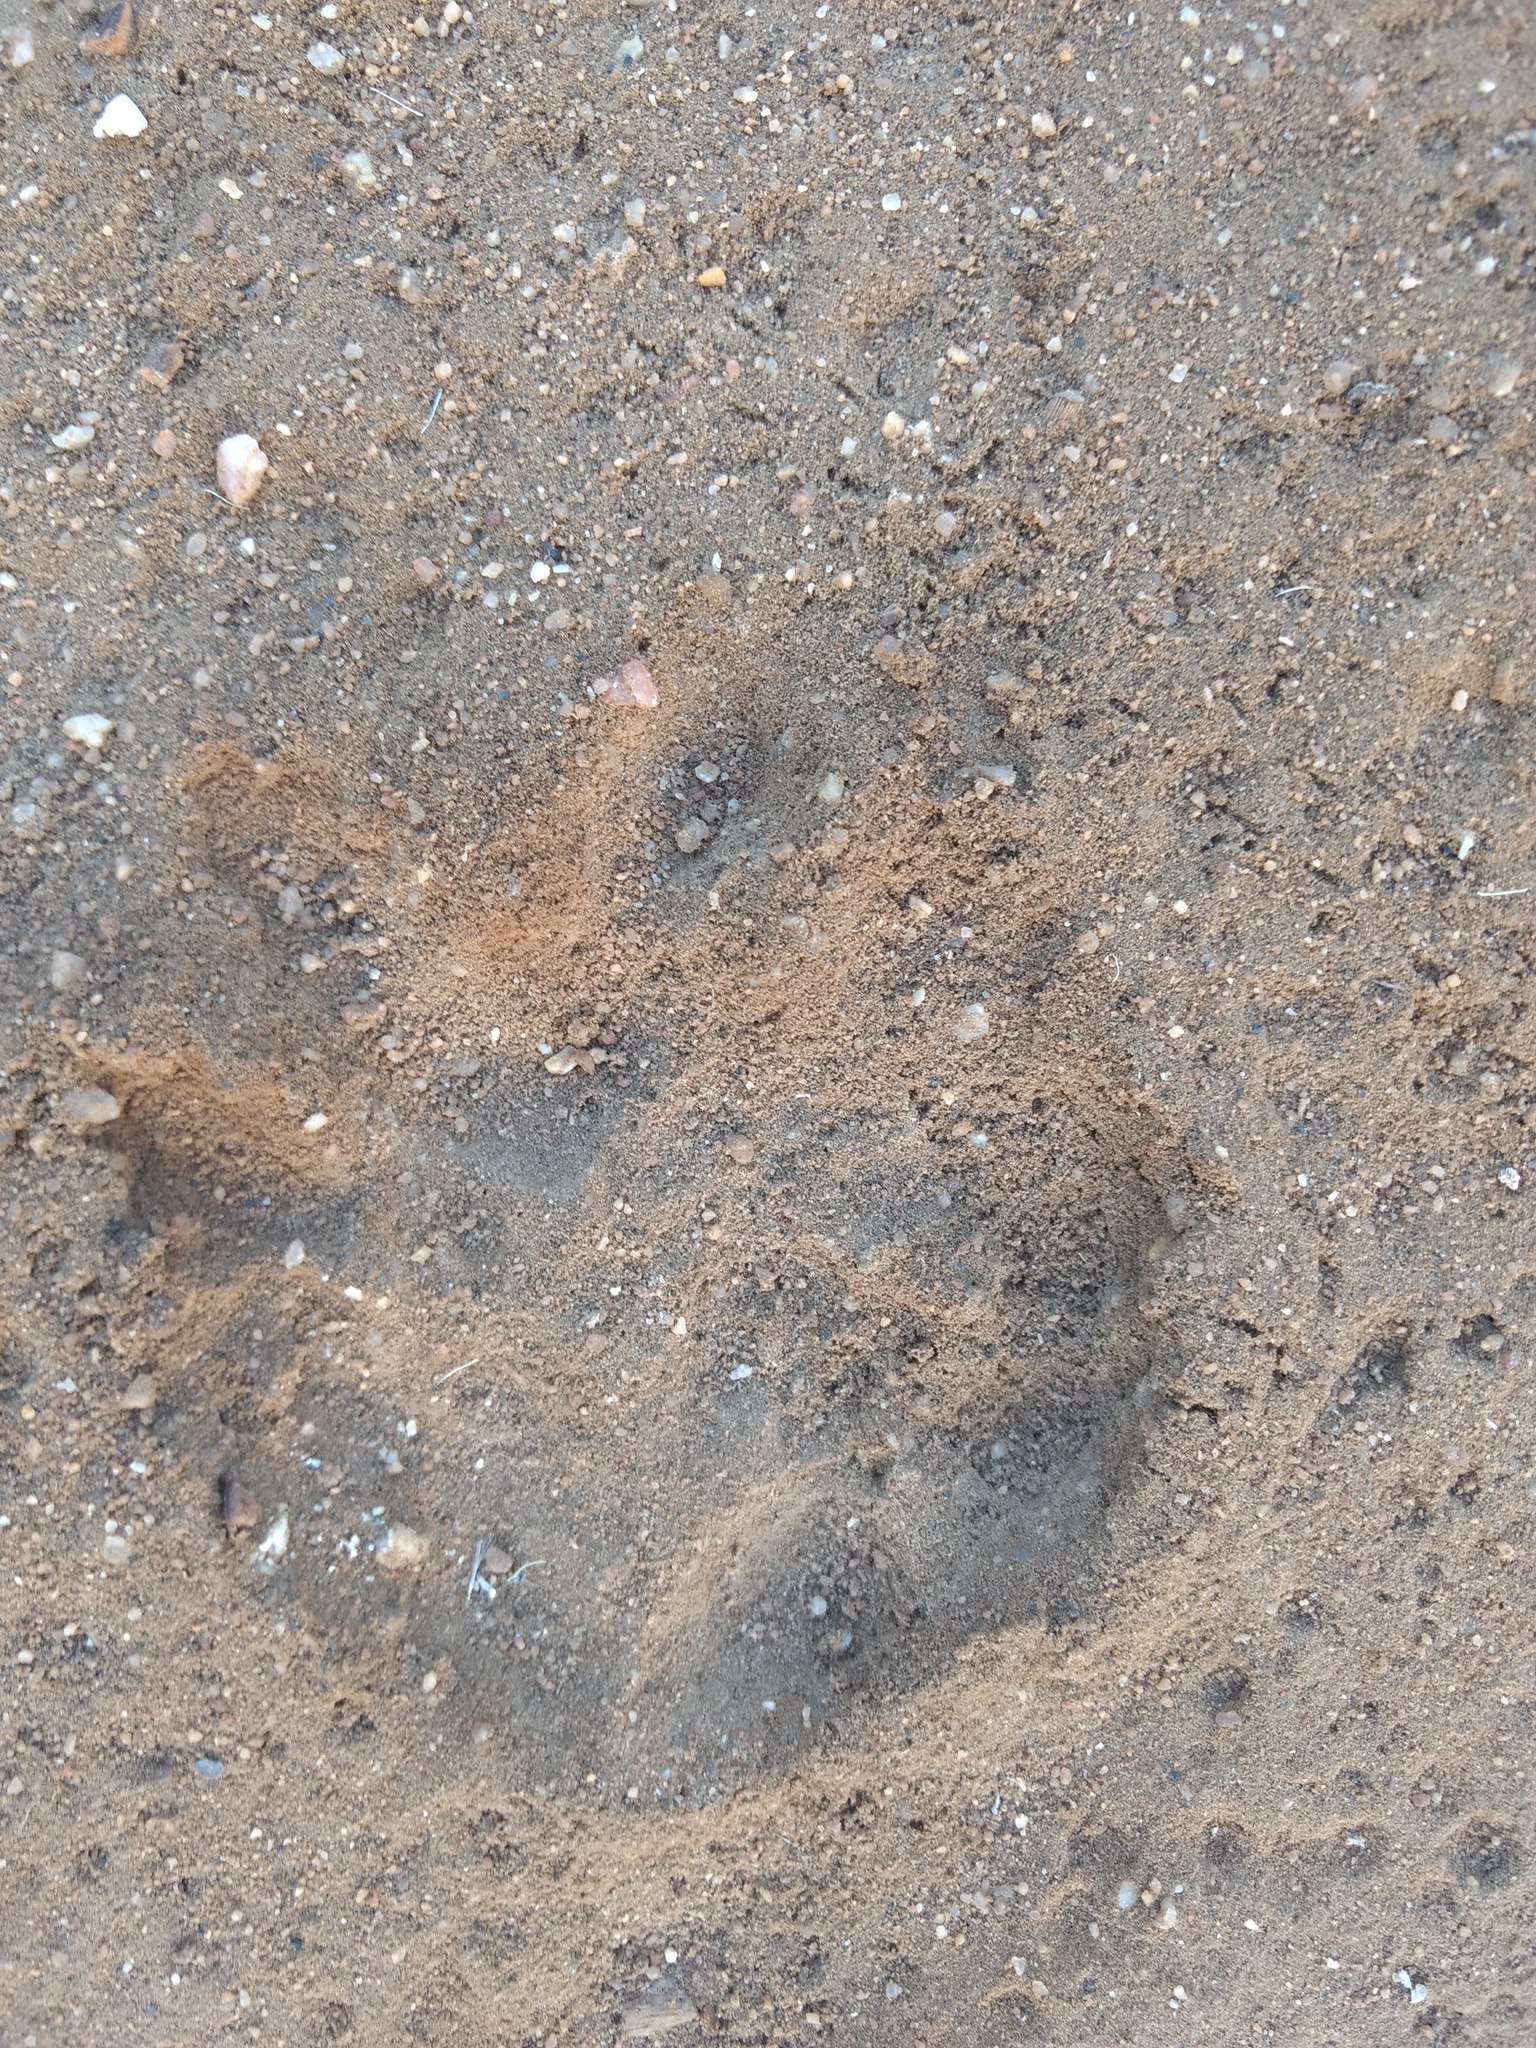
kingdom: Animalia
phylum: Chordata
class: Mammalia
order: Didelphimorphia
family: Didelphidae
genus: Didelphis
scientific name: Didelphis virginiana
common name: Virginia opossum
